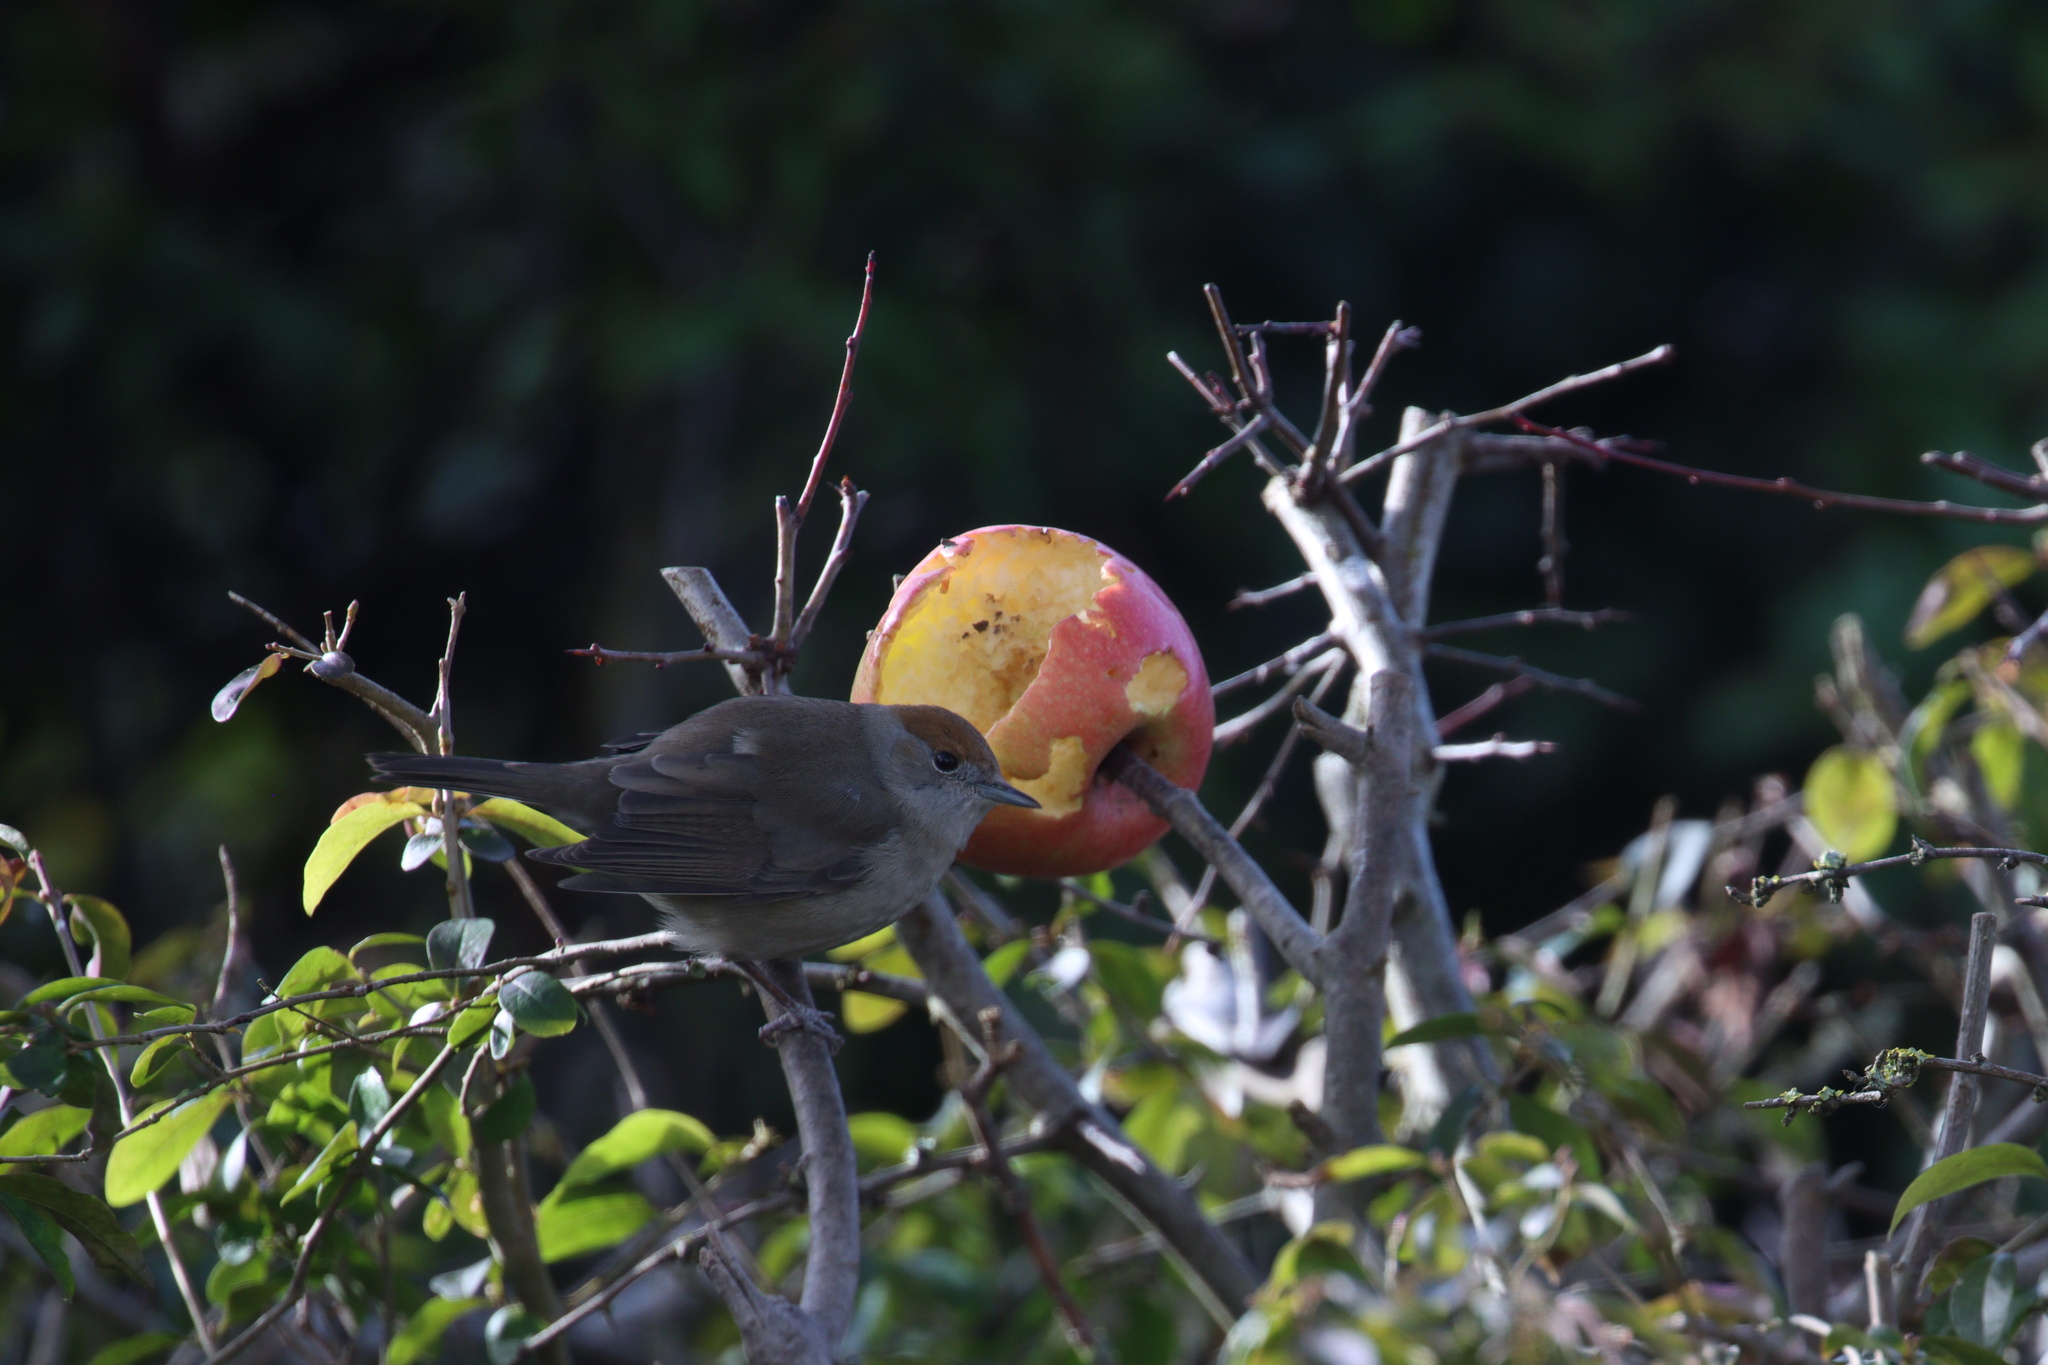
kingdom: Animalia
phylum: Chordata
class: Aves
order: Passeriformes
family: Sylviidae
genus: Sylvia
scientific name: Sylvia atricapilla
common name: Eurasian blackcap
